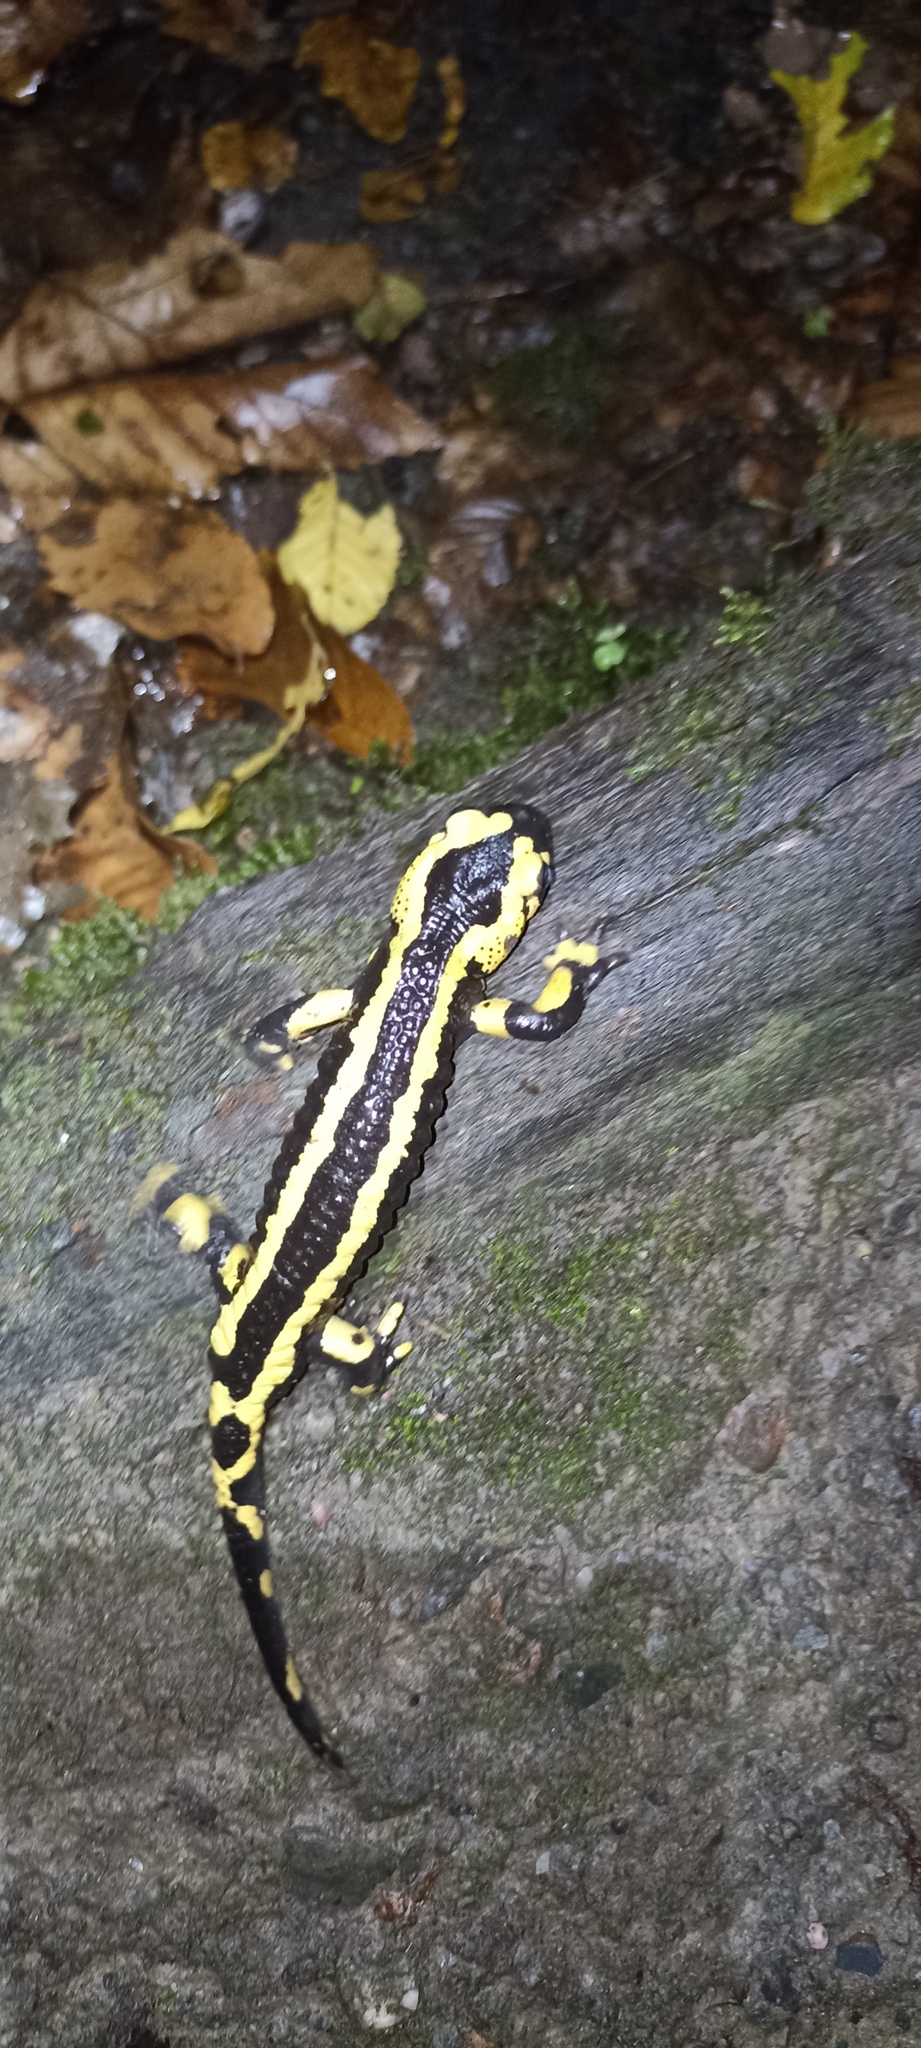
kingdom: Animalia
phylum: Chordata
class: Amphibia
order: Caudata
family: Salamandridae
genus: Salamandra
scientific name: Salamandra salamandra
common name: Fire salamander
